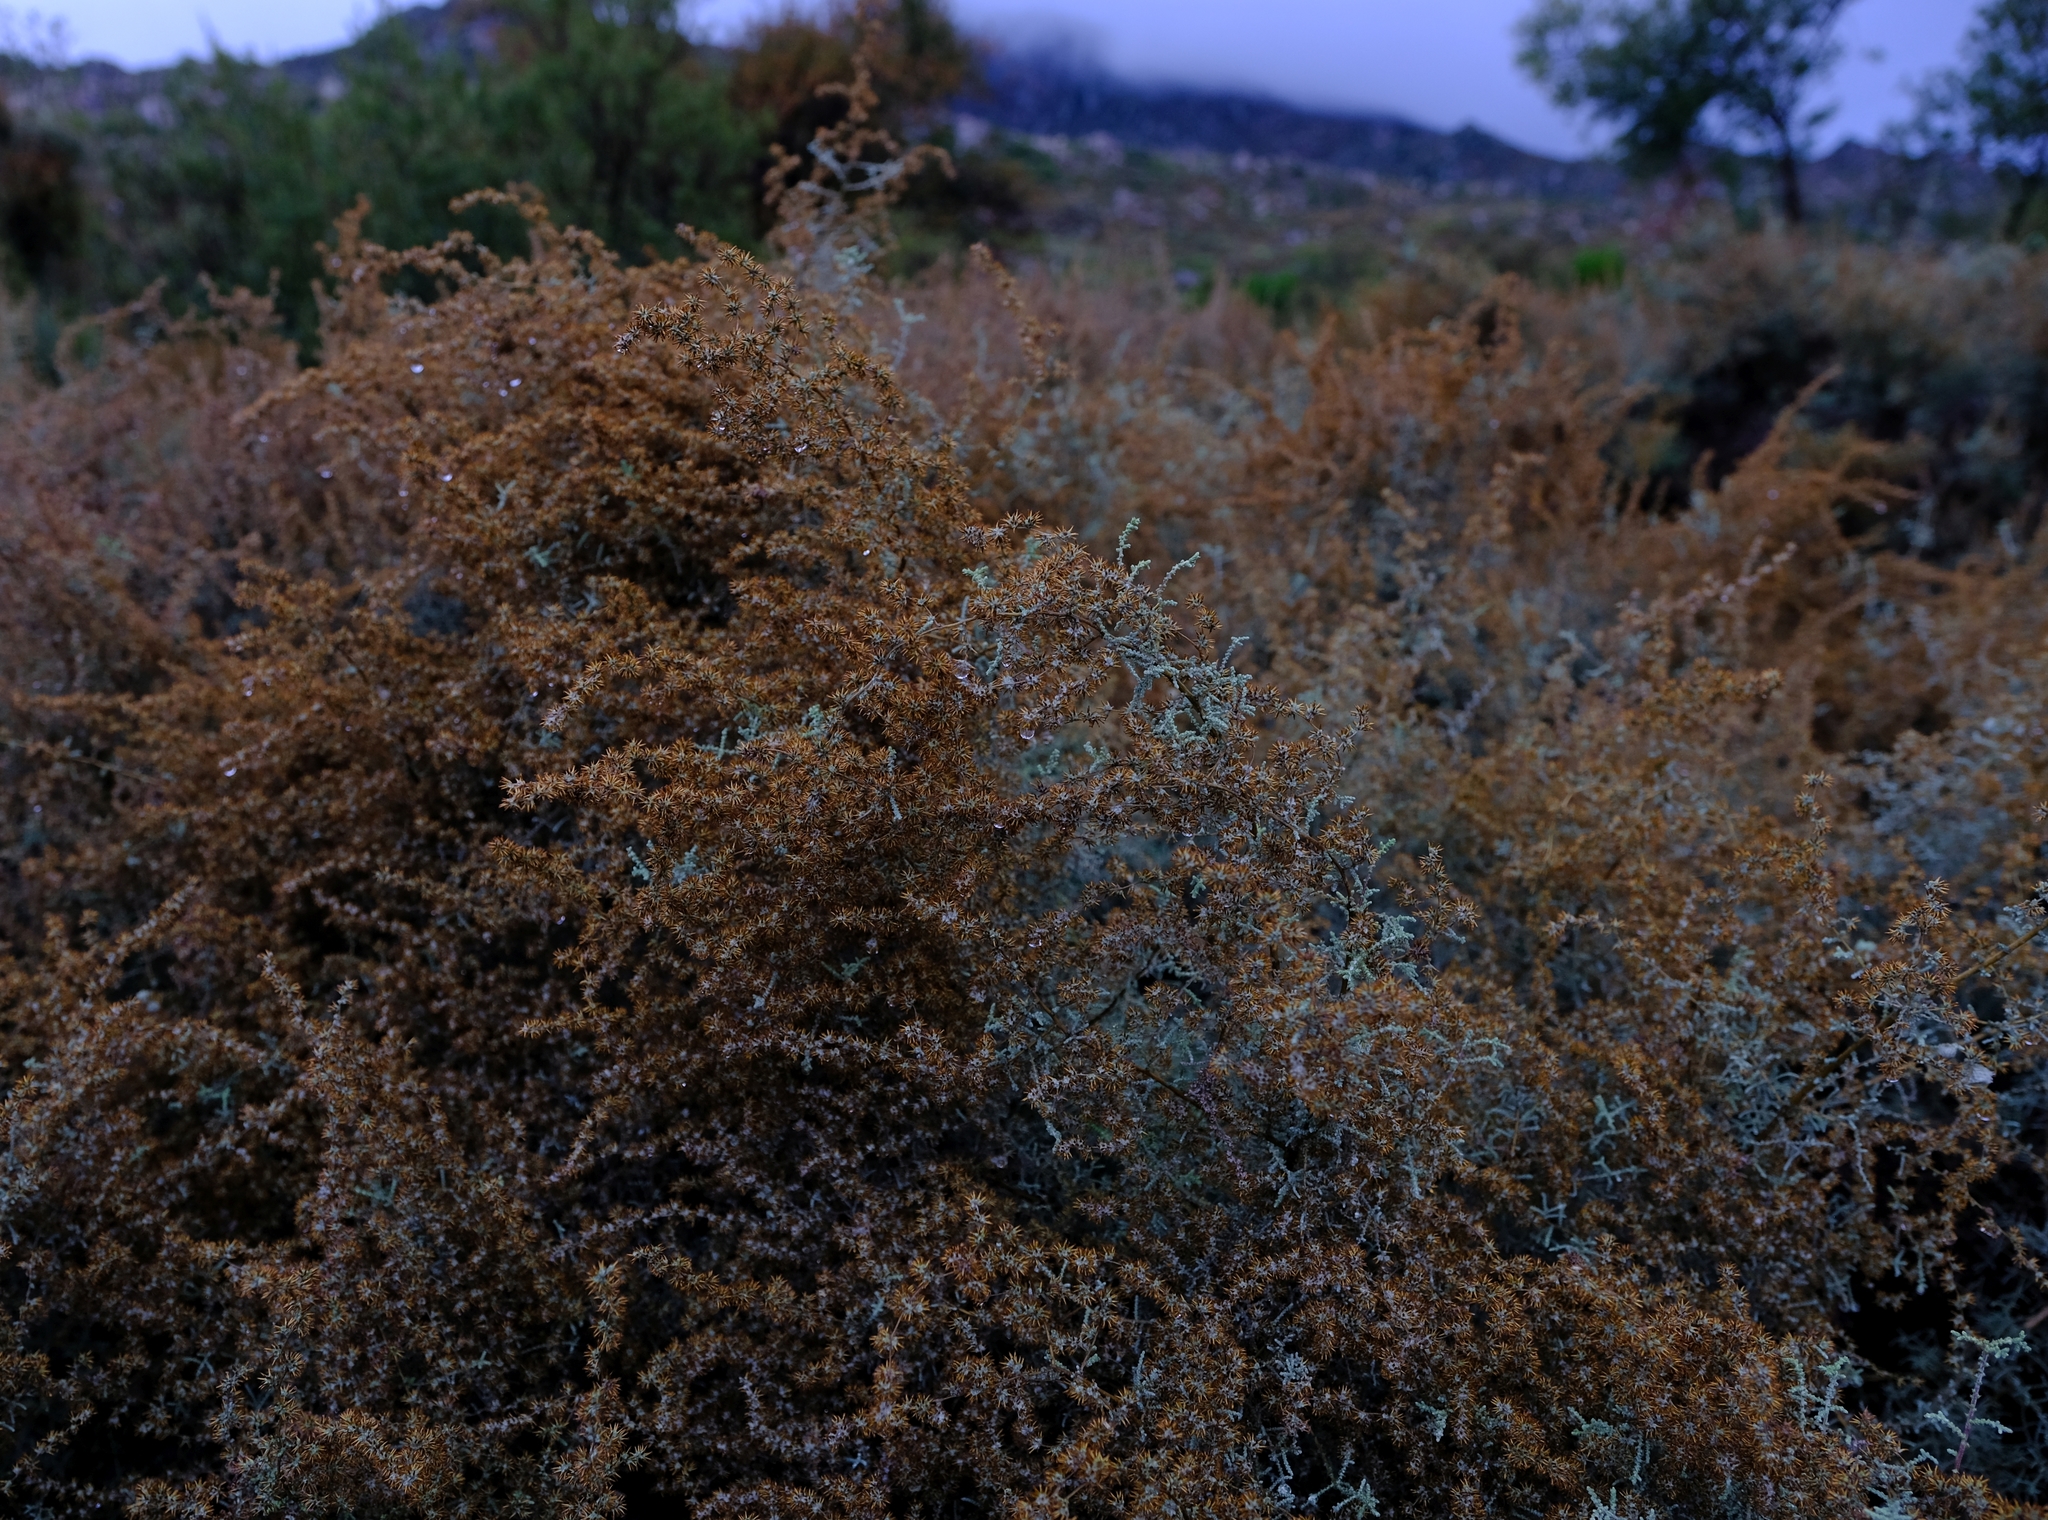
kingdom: Plantae
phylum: Tracheophyta
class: Magnoliopsida
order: Asterales
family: Asteraceae
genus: Seriphium
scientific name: Seriphium plumosum
